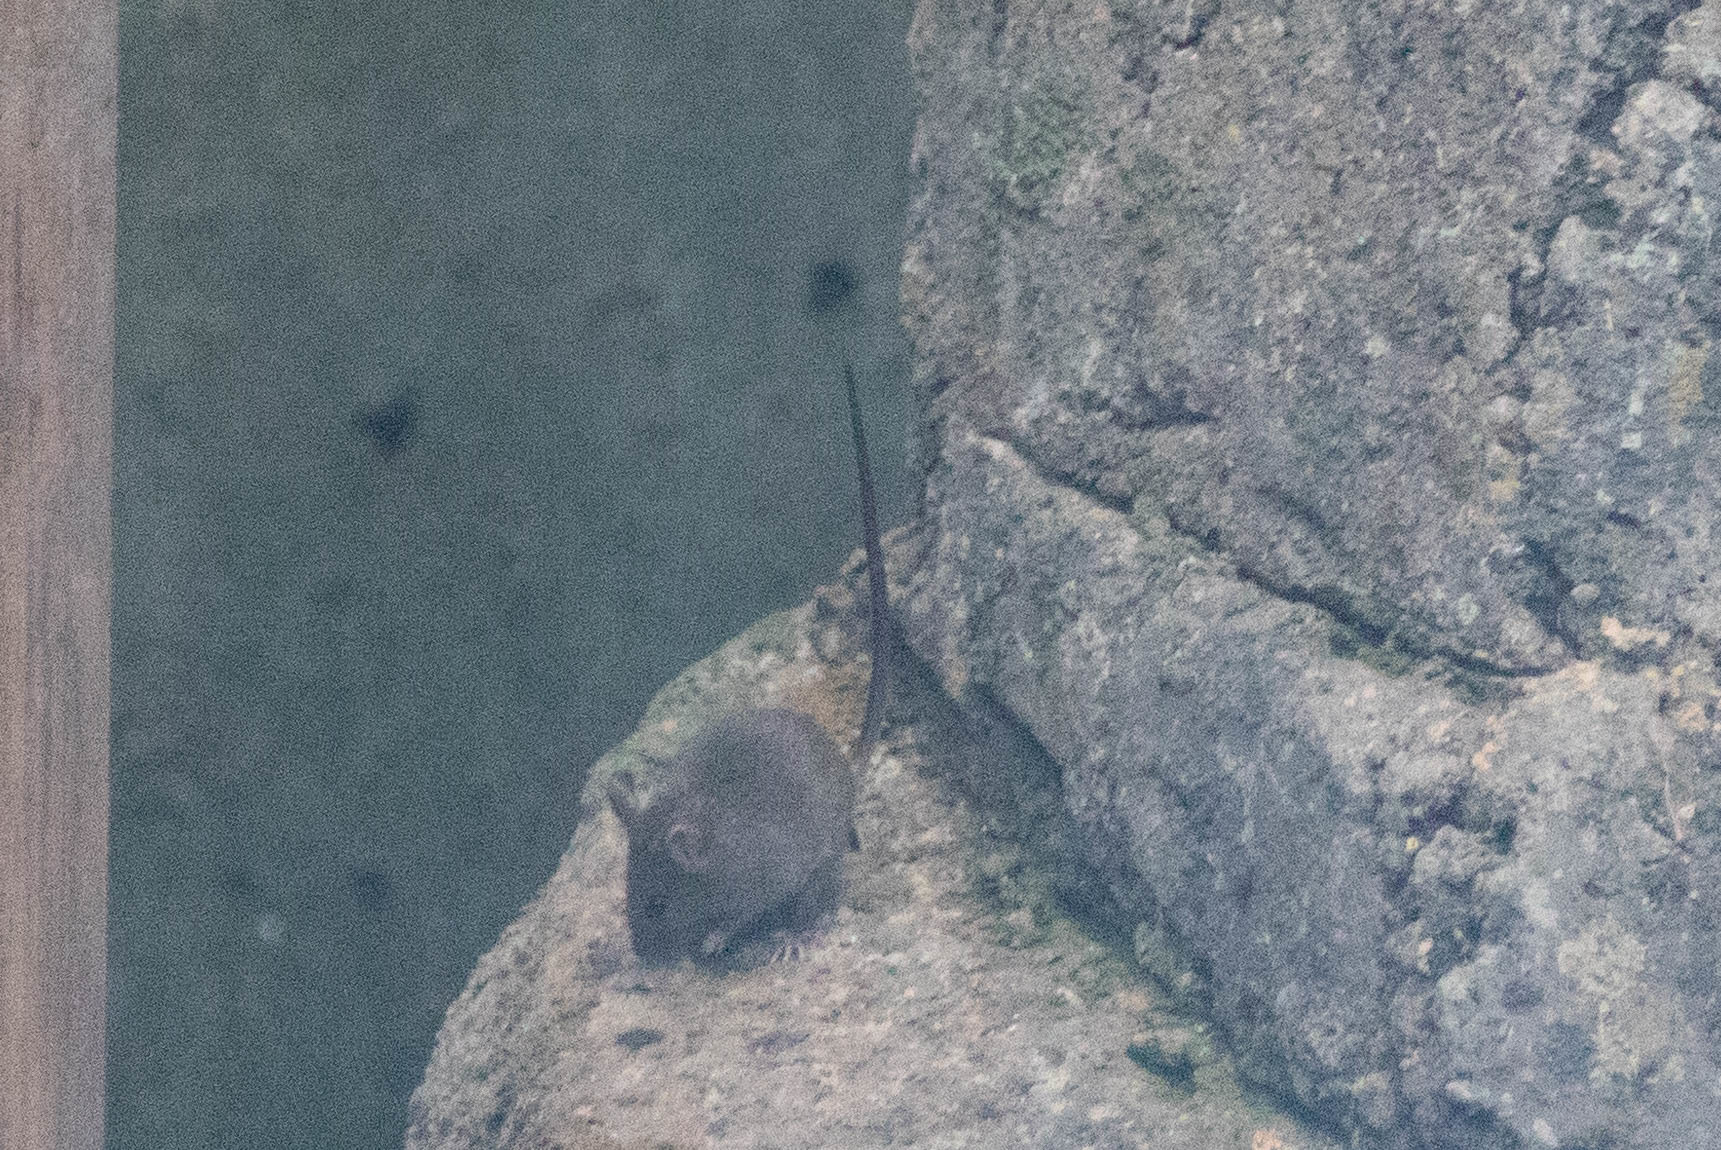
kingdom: Animalia
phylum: Chordata
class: Mammalia
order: Rodentia
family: Muridae
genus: Mus
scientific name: Mus musculus
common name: House mouse
